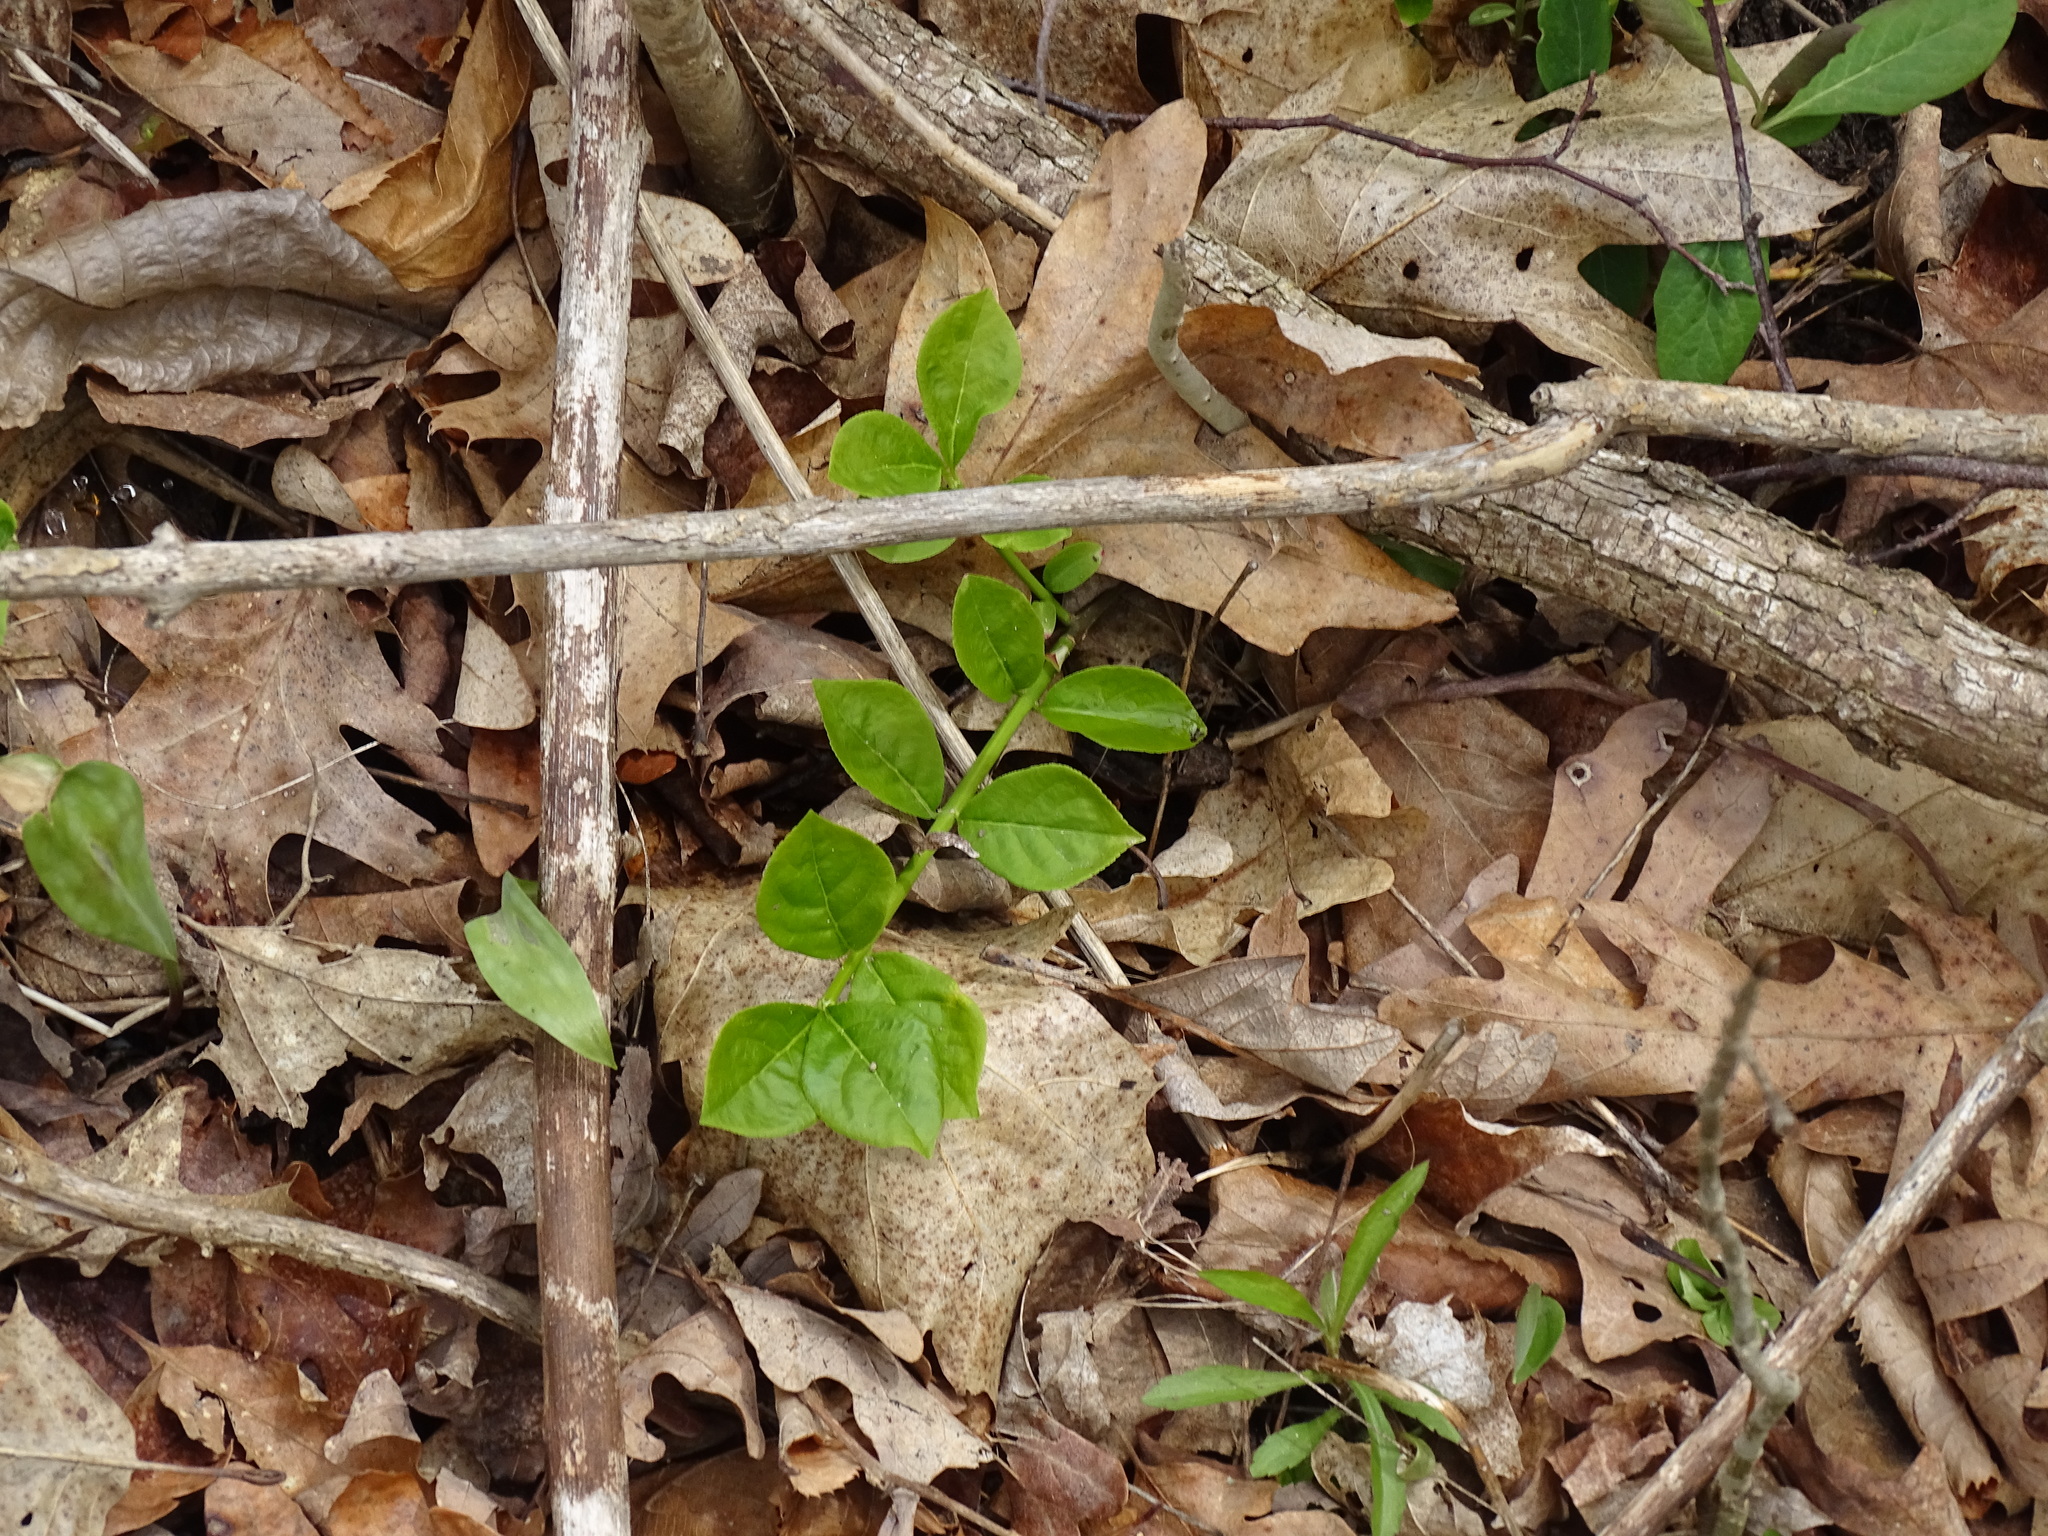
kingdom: Plantae
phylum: Tracheophyta
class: Magnoliopsida
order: Celastrales
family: Celastraceae
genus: Euonymus
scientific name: Euonymus obovatus
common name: Running strawberry-bush
